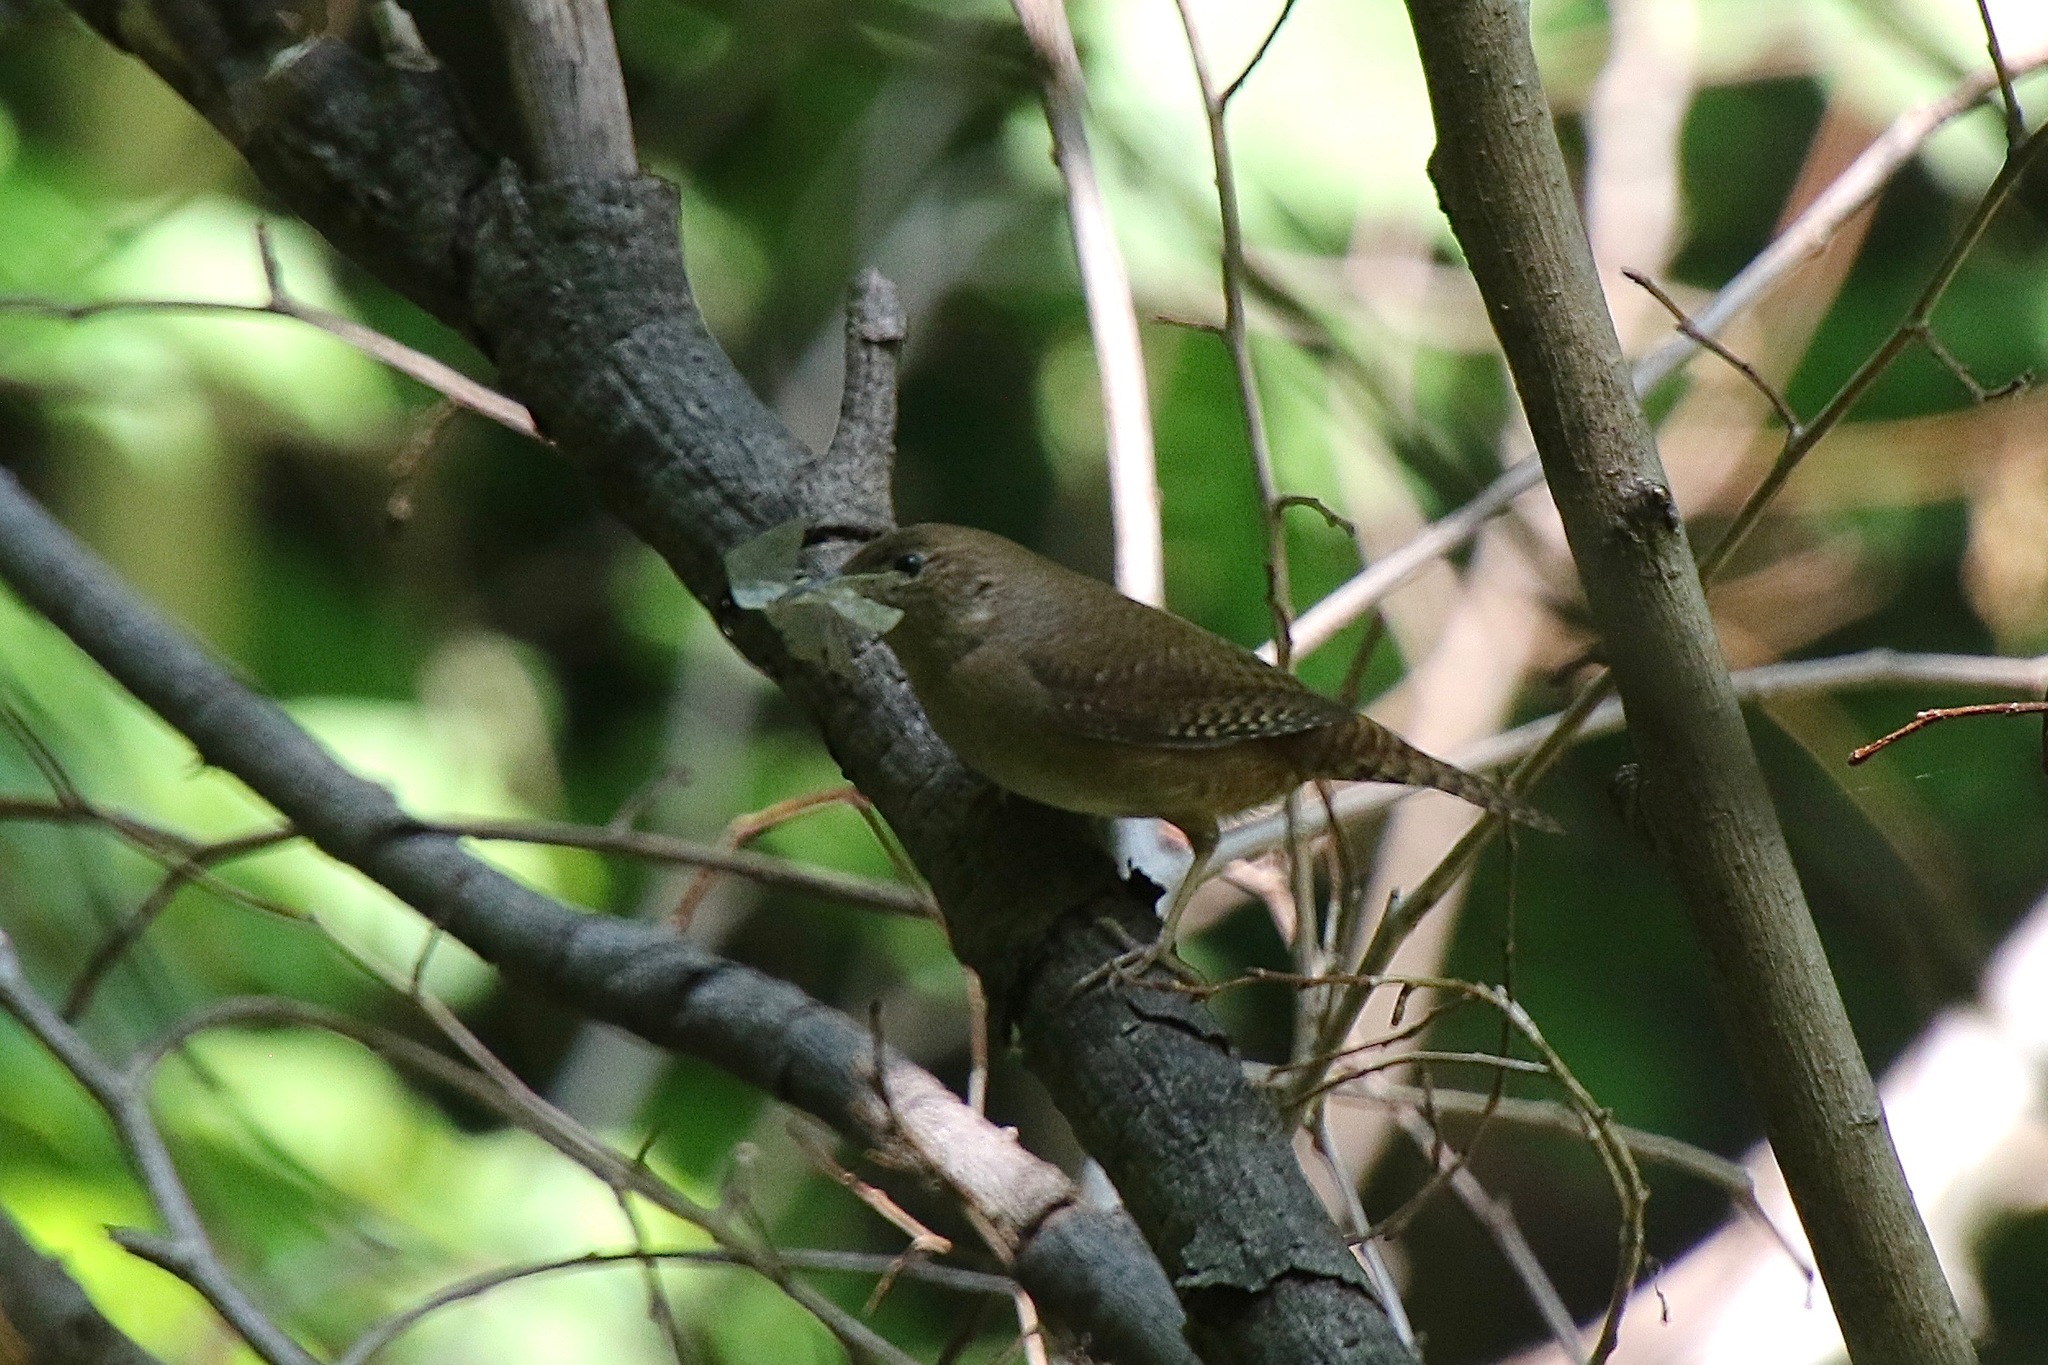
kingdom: Animalia
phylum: Chordata
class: Aves
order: Passeriformes
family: Troglodytidae
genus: Troglodytes
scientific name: Troglodytes aedon
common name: House wren
